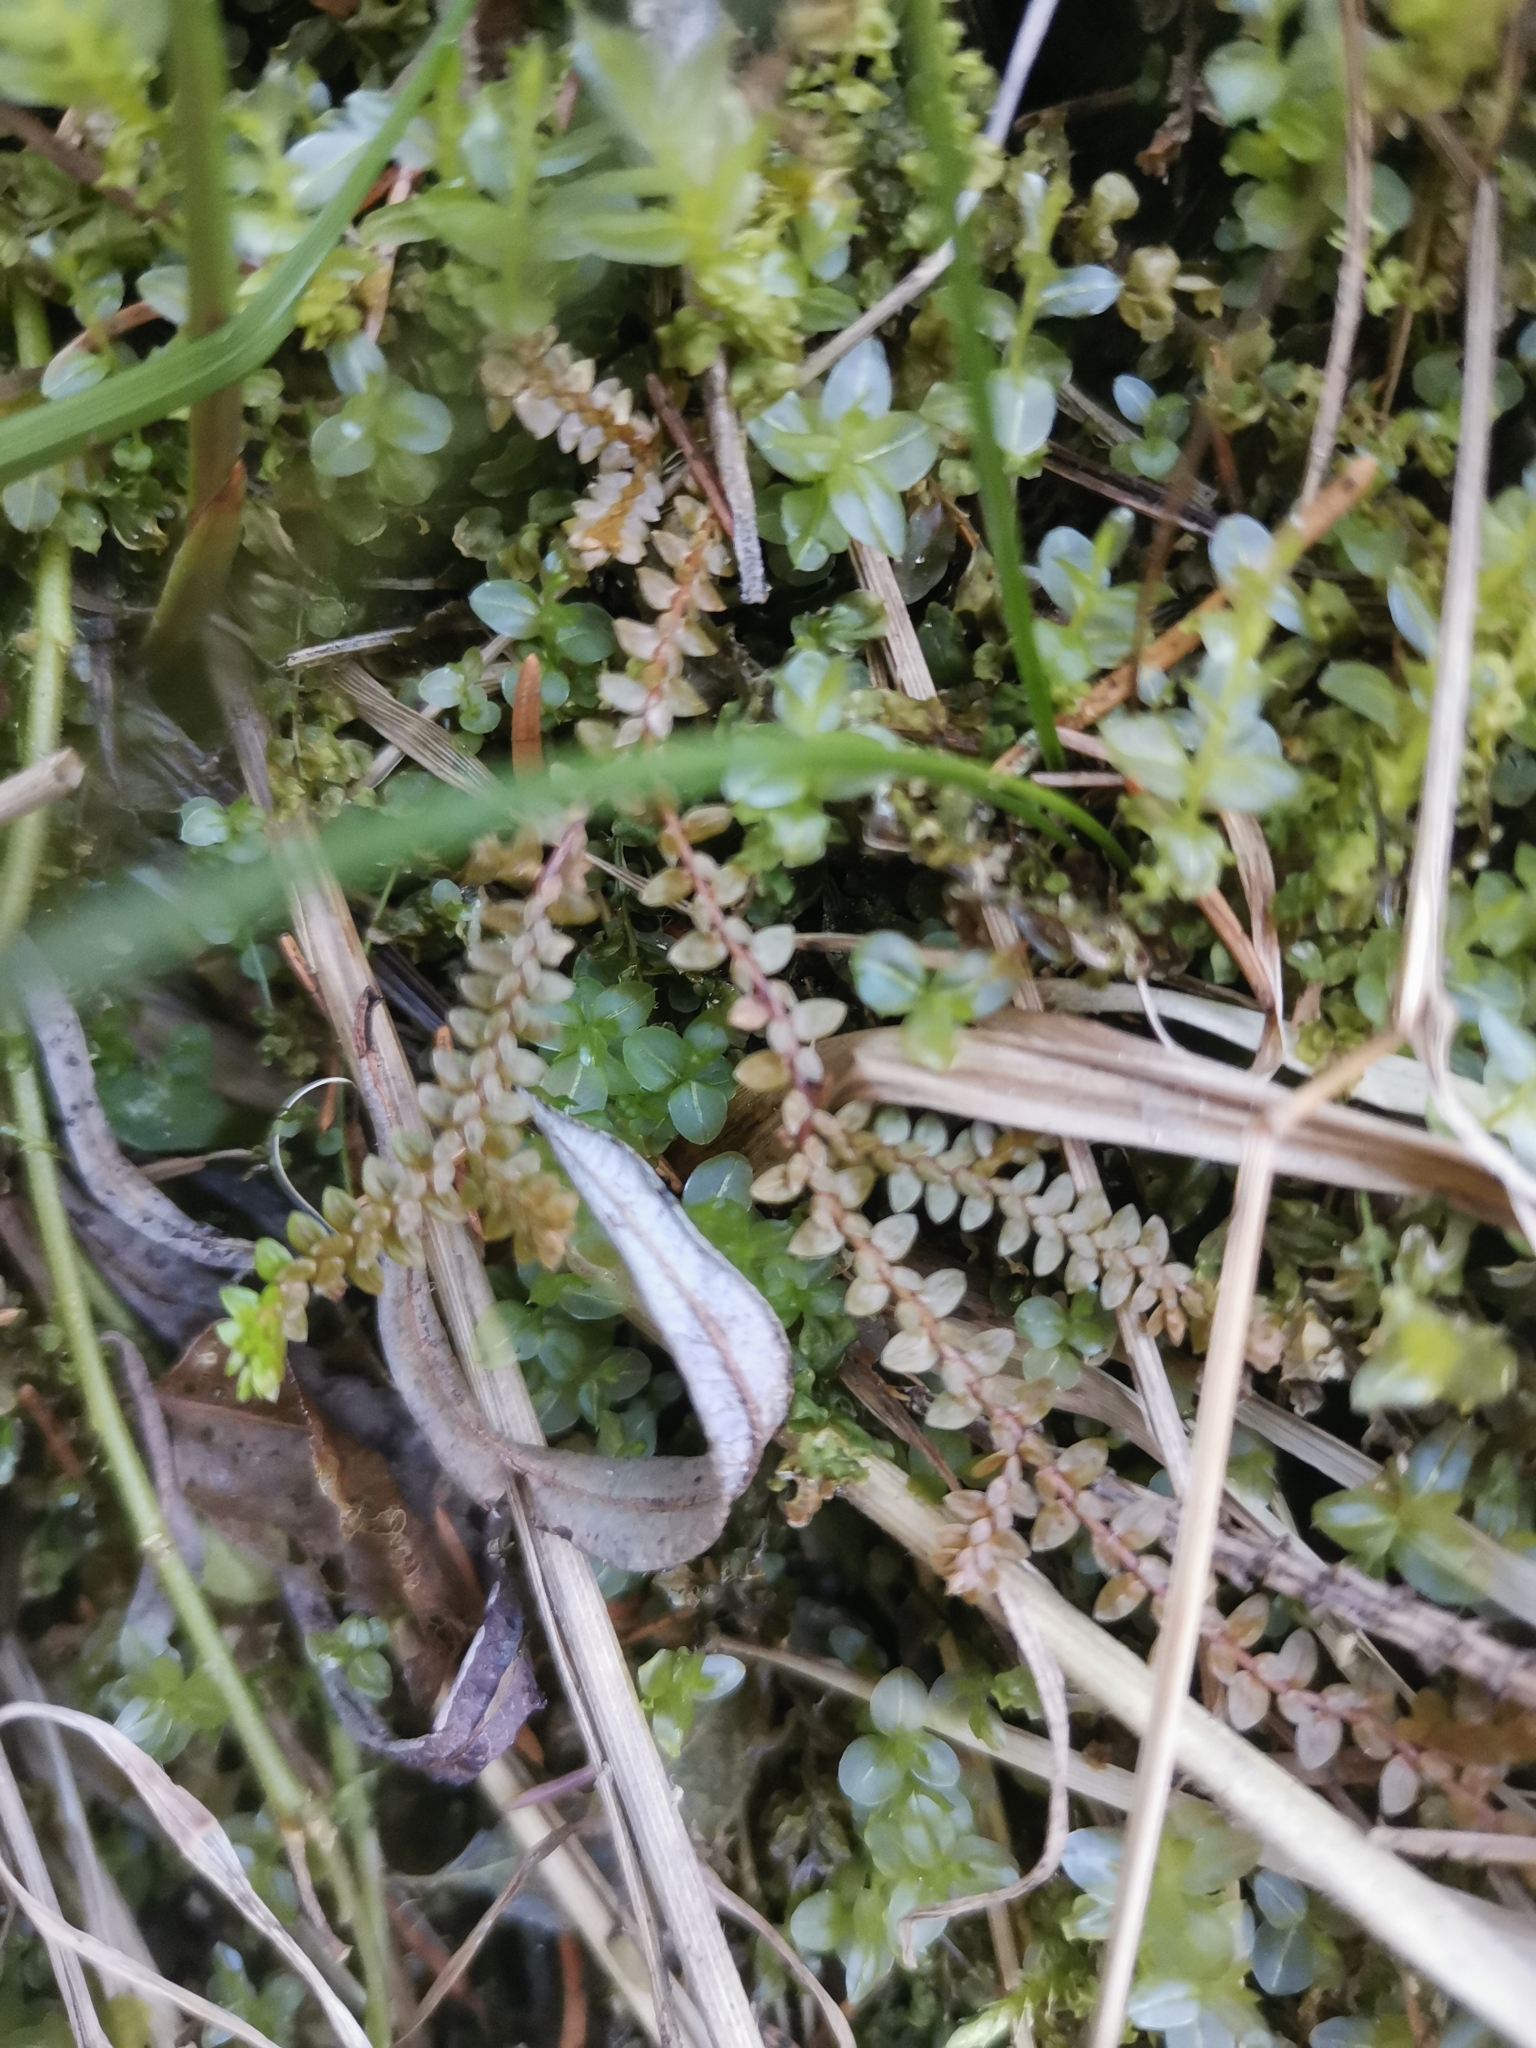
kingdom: Plantae
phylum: Tracheophyta
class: Lycopodiopsida
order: Selaginellales
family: Selaginellaceae
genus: Selaginella
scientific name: Selaginella helvetica
